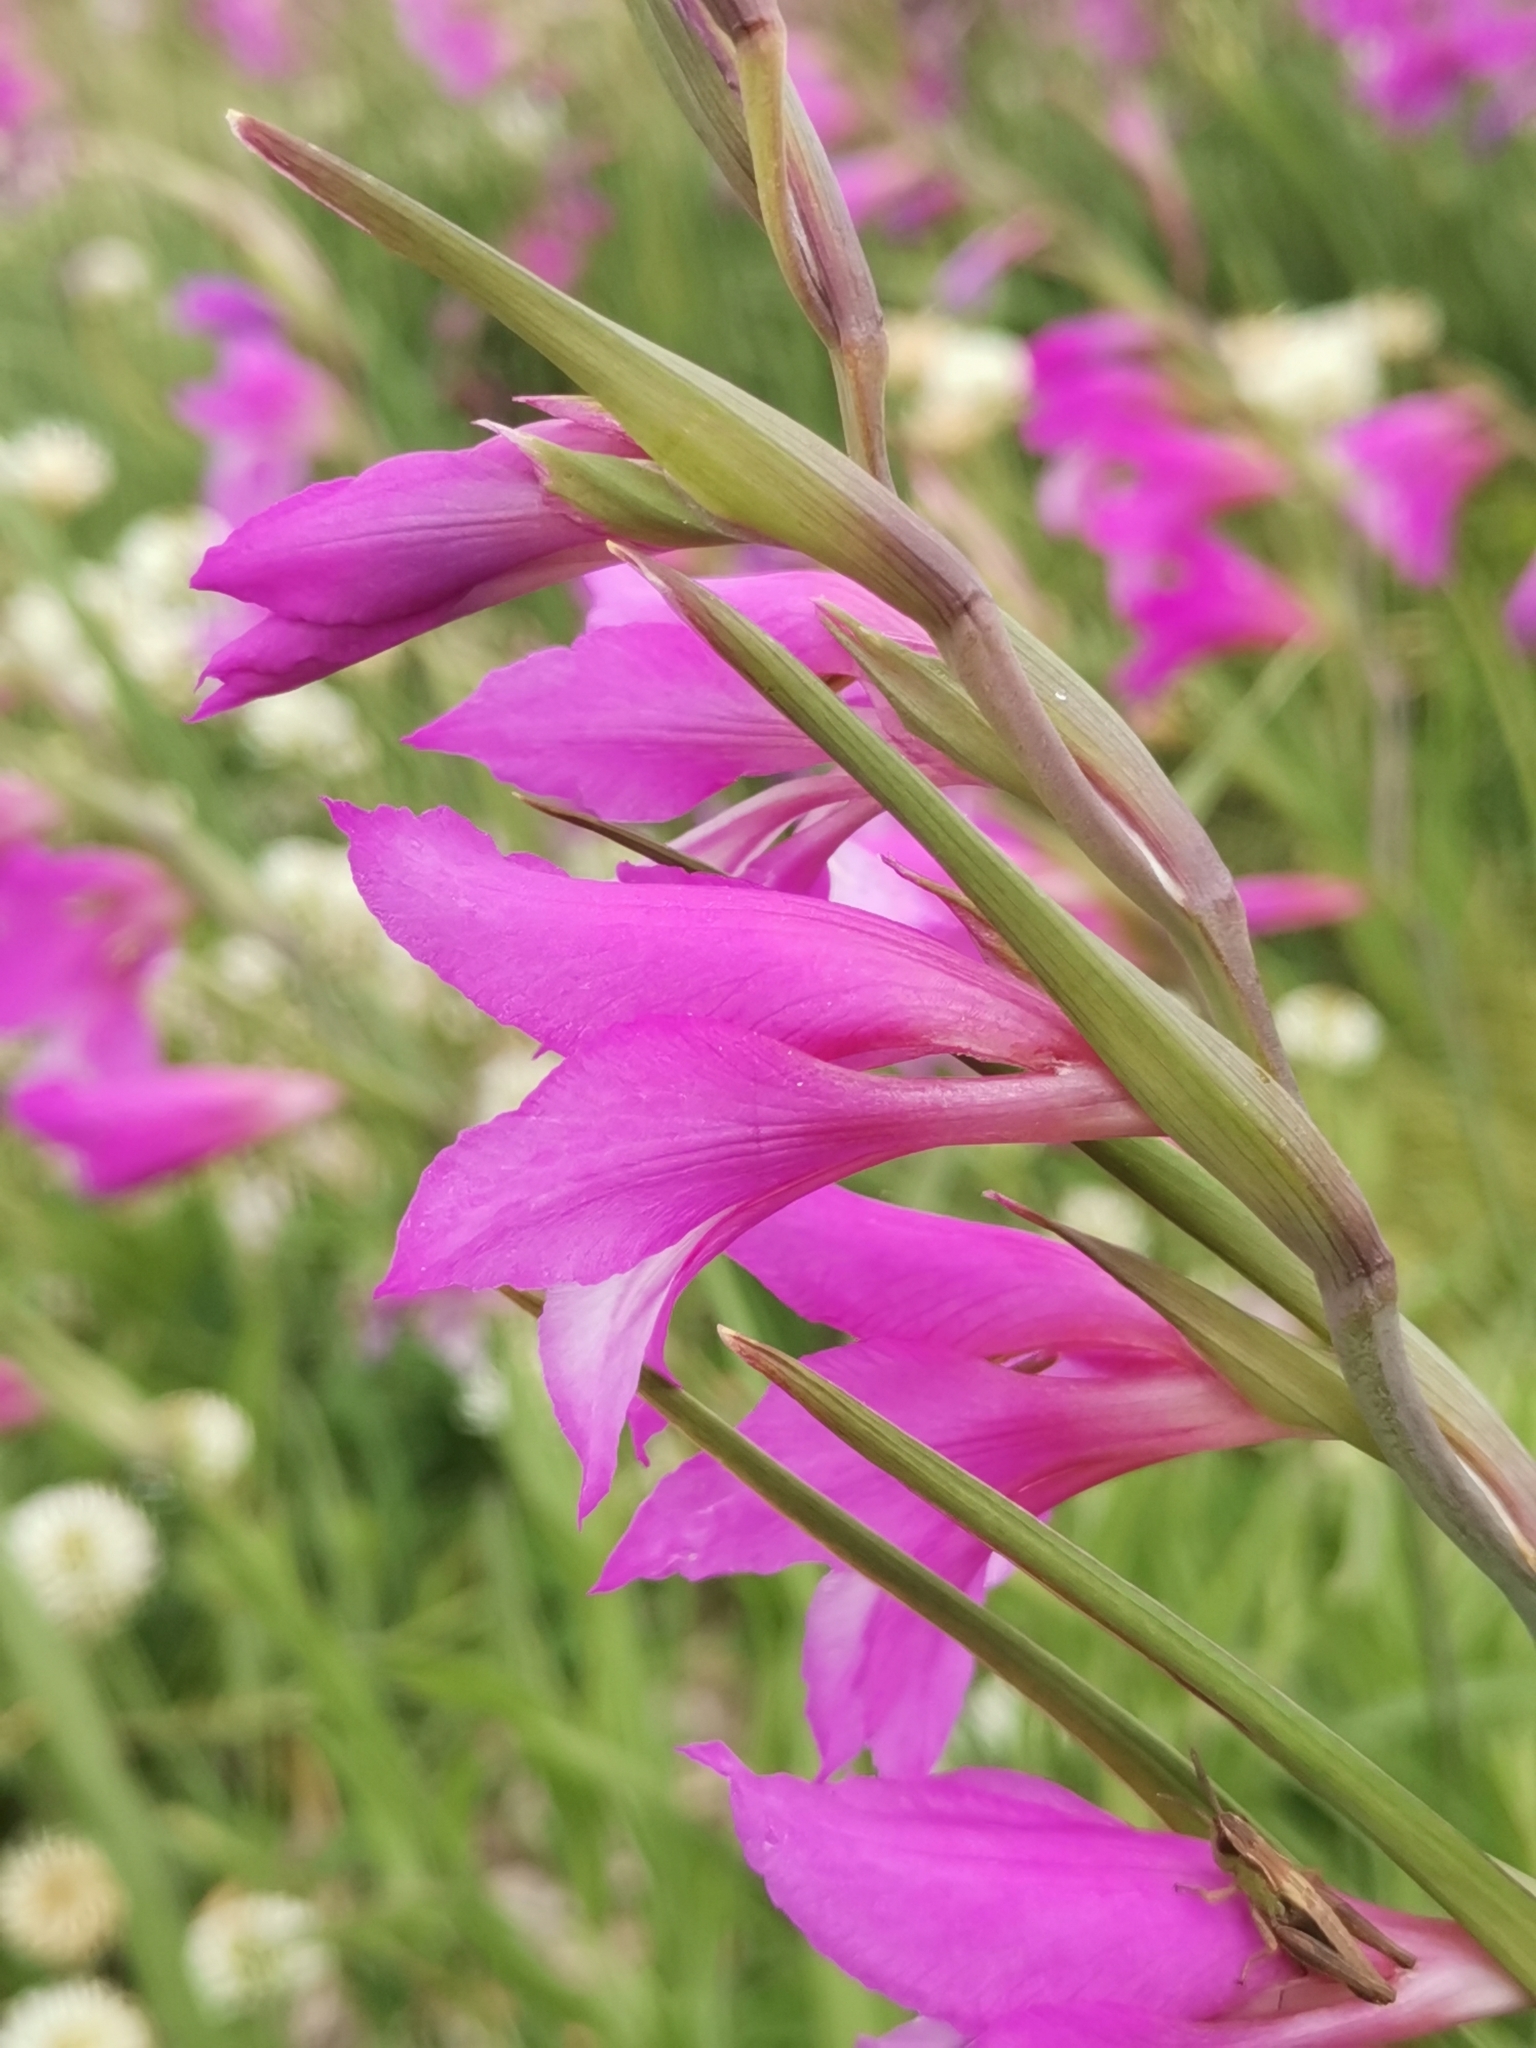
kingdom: Plantae
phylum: Tracheophyta
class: Liliopsida
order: Asparagales
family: Iridaceae
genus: Gladiolus
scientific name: Gladiolus illyricus
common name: Wild gladiolus
